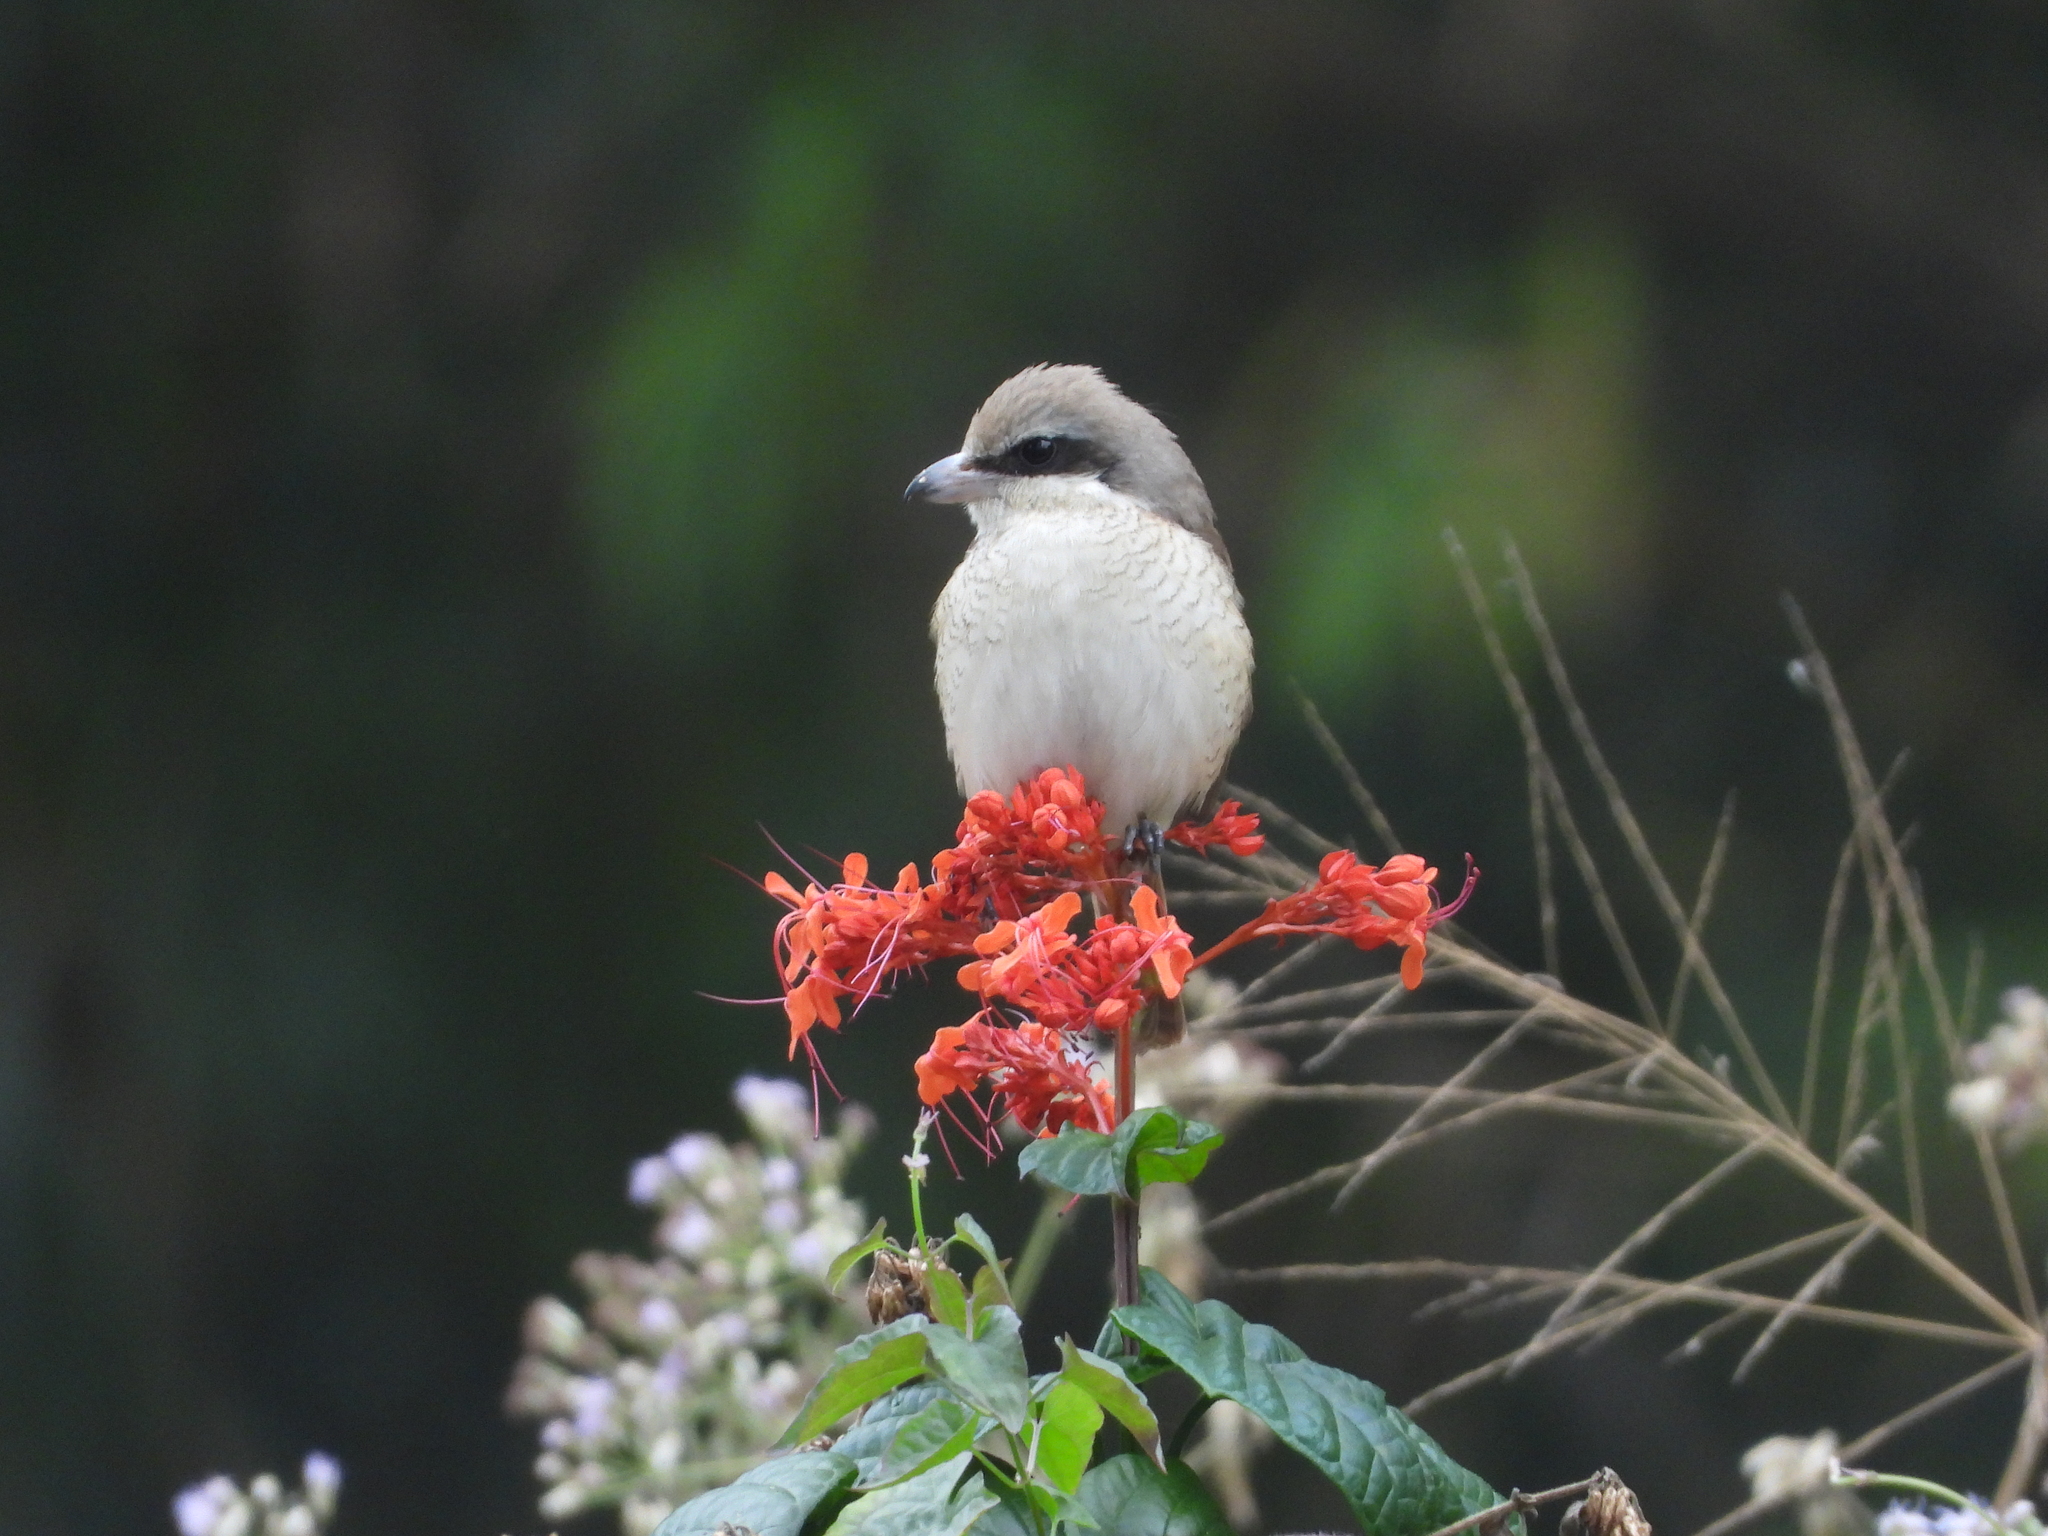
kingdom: Animalia
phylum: Chordata
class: Aves
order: Passeriformes
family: Laniidae
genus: Lanius
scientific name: Lanius cristatus
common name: Brown shrike
